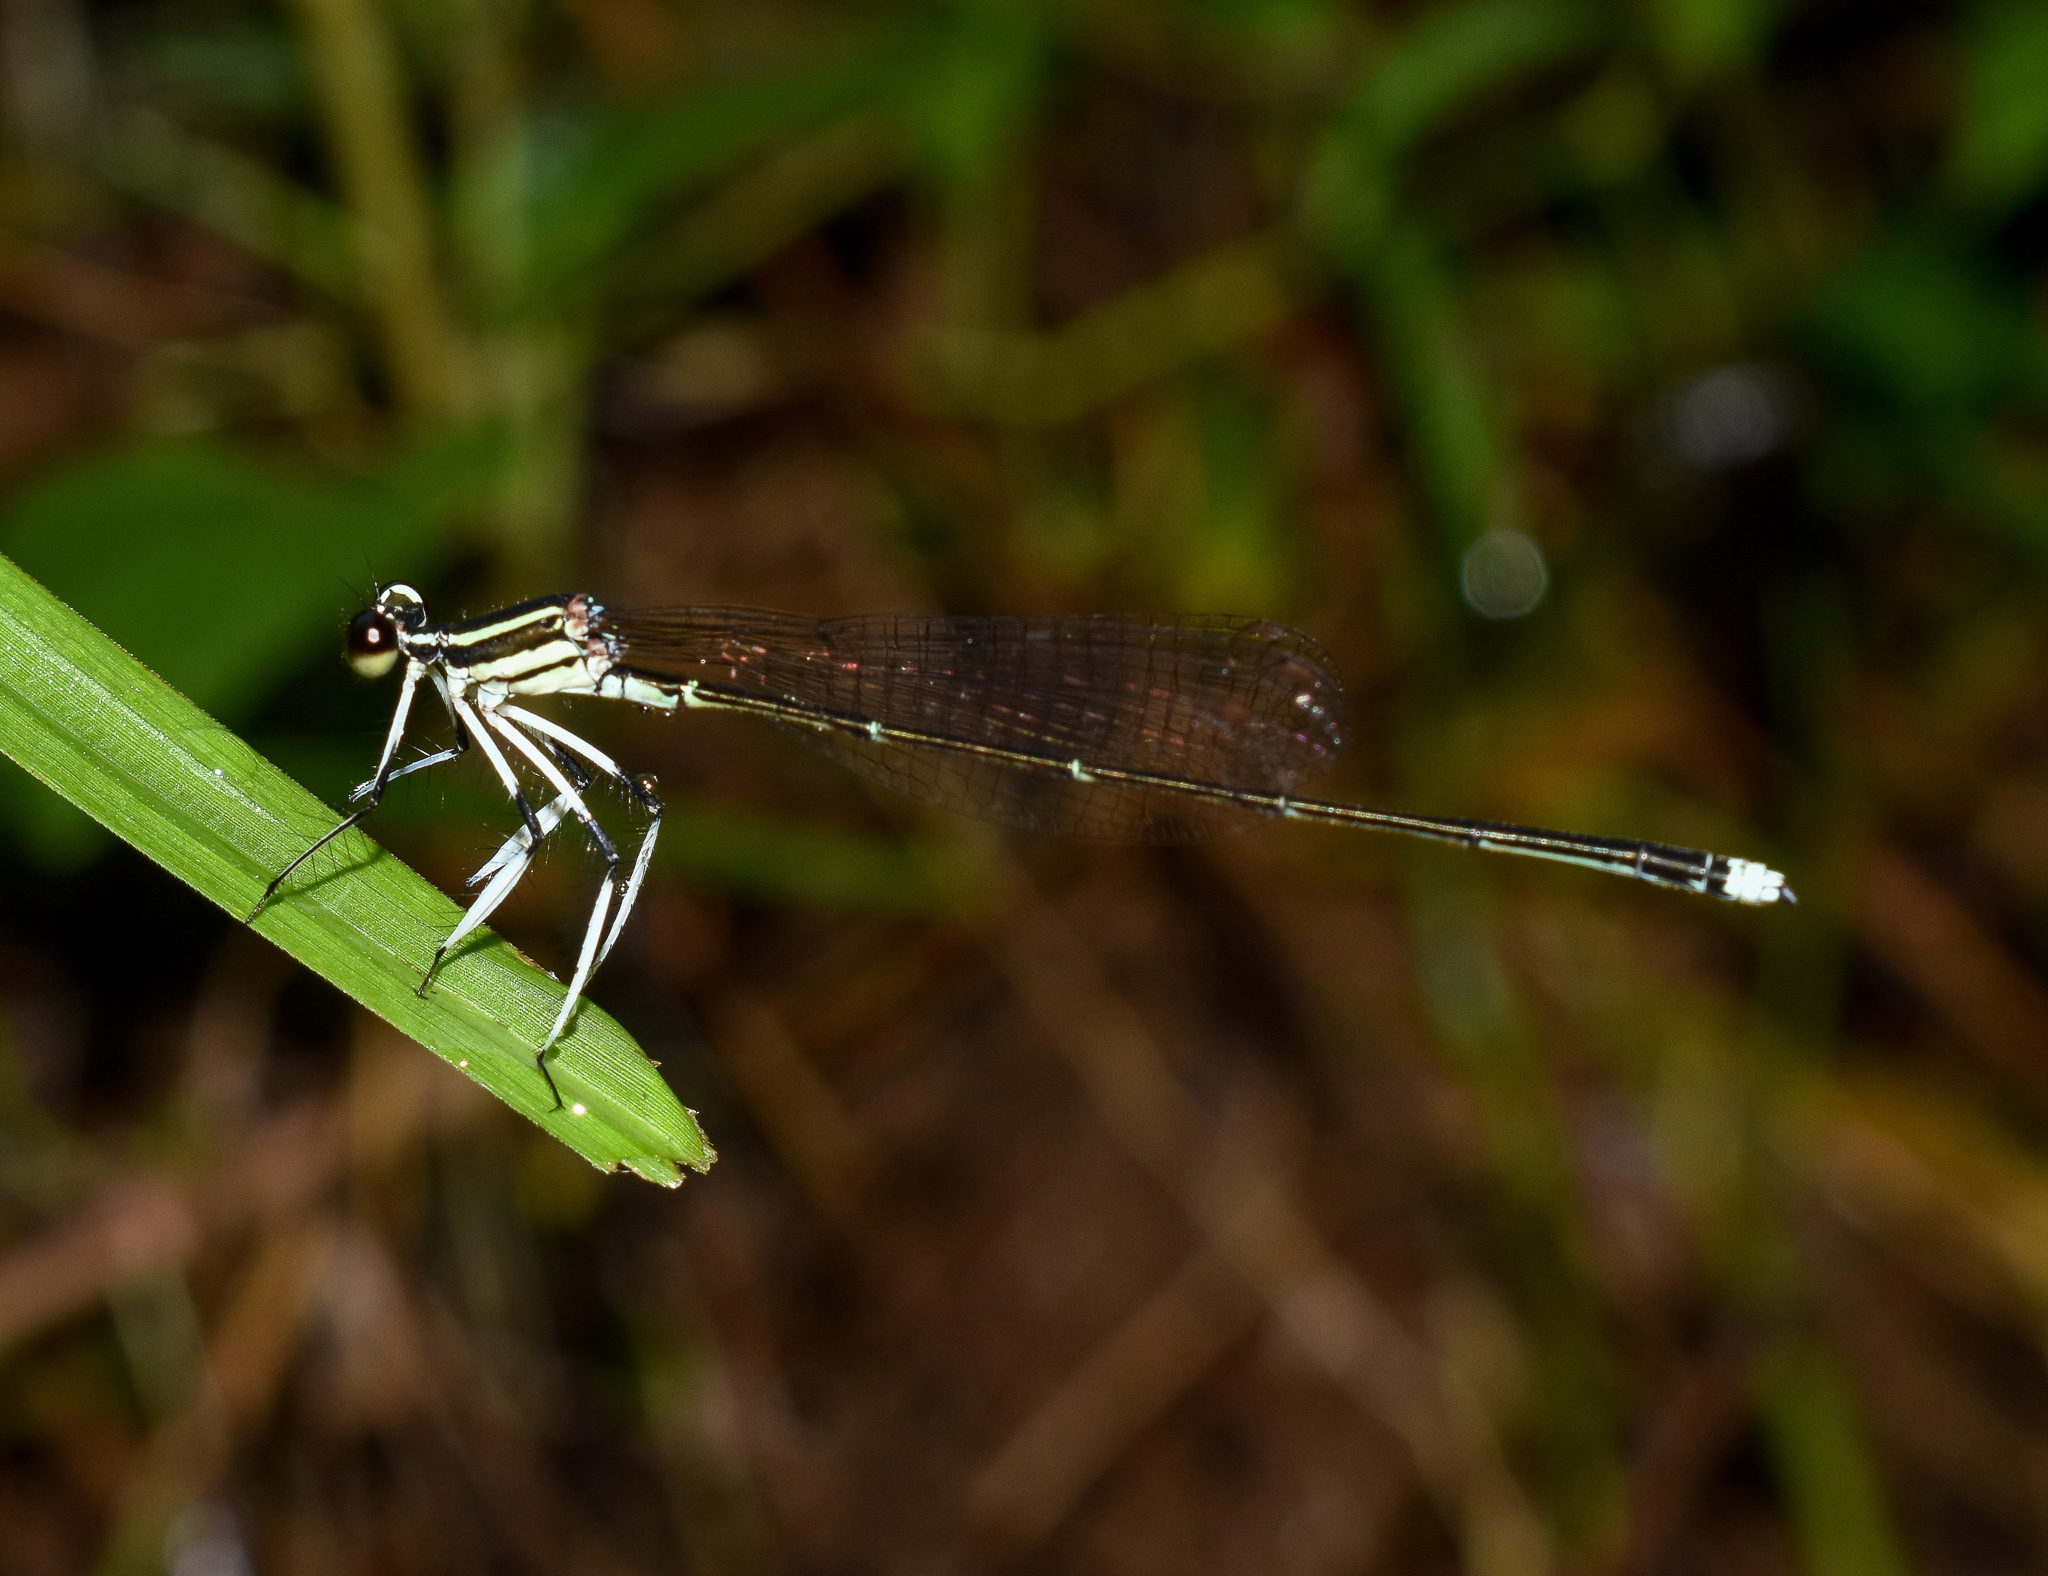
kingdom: Animalia
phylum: Arthropoda
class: Insecta
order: Odonata
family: Platycnemididae
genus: Pseudocopera
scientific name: Pseudocopera ciliata
